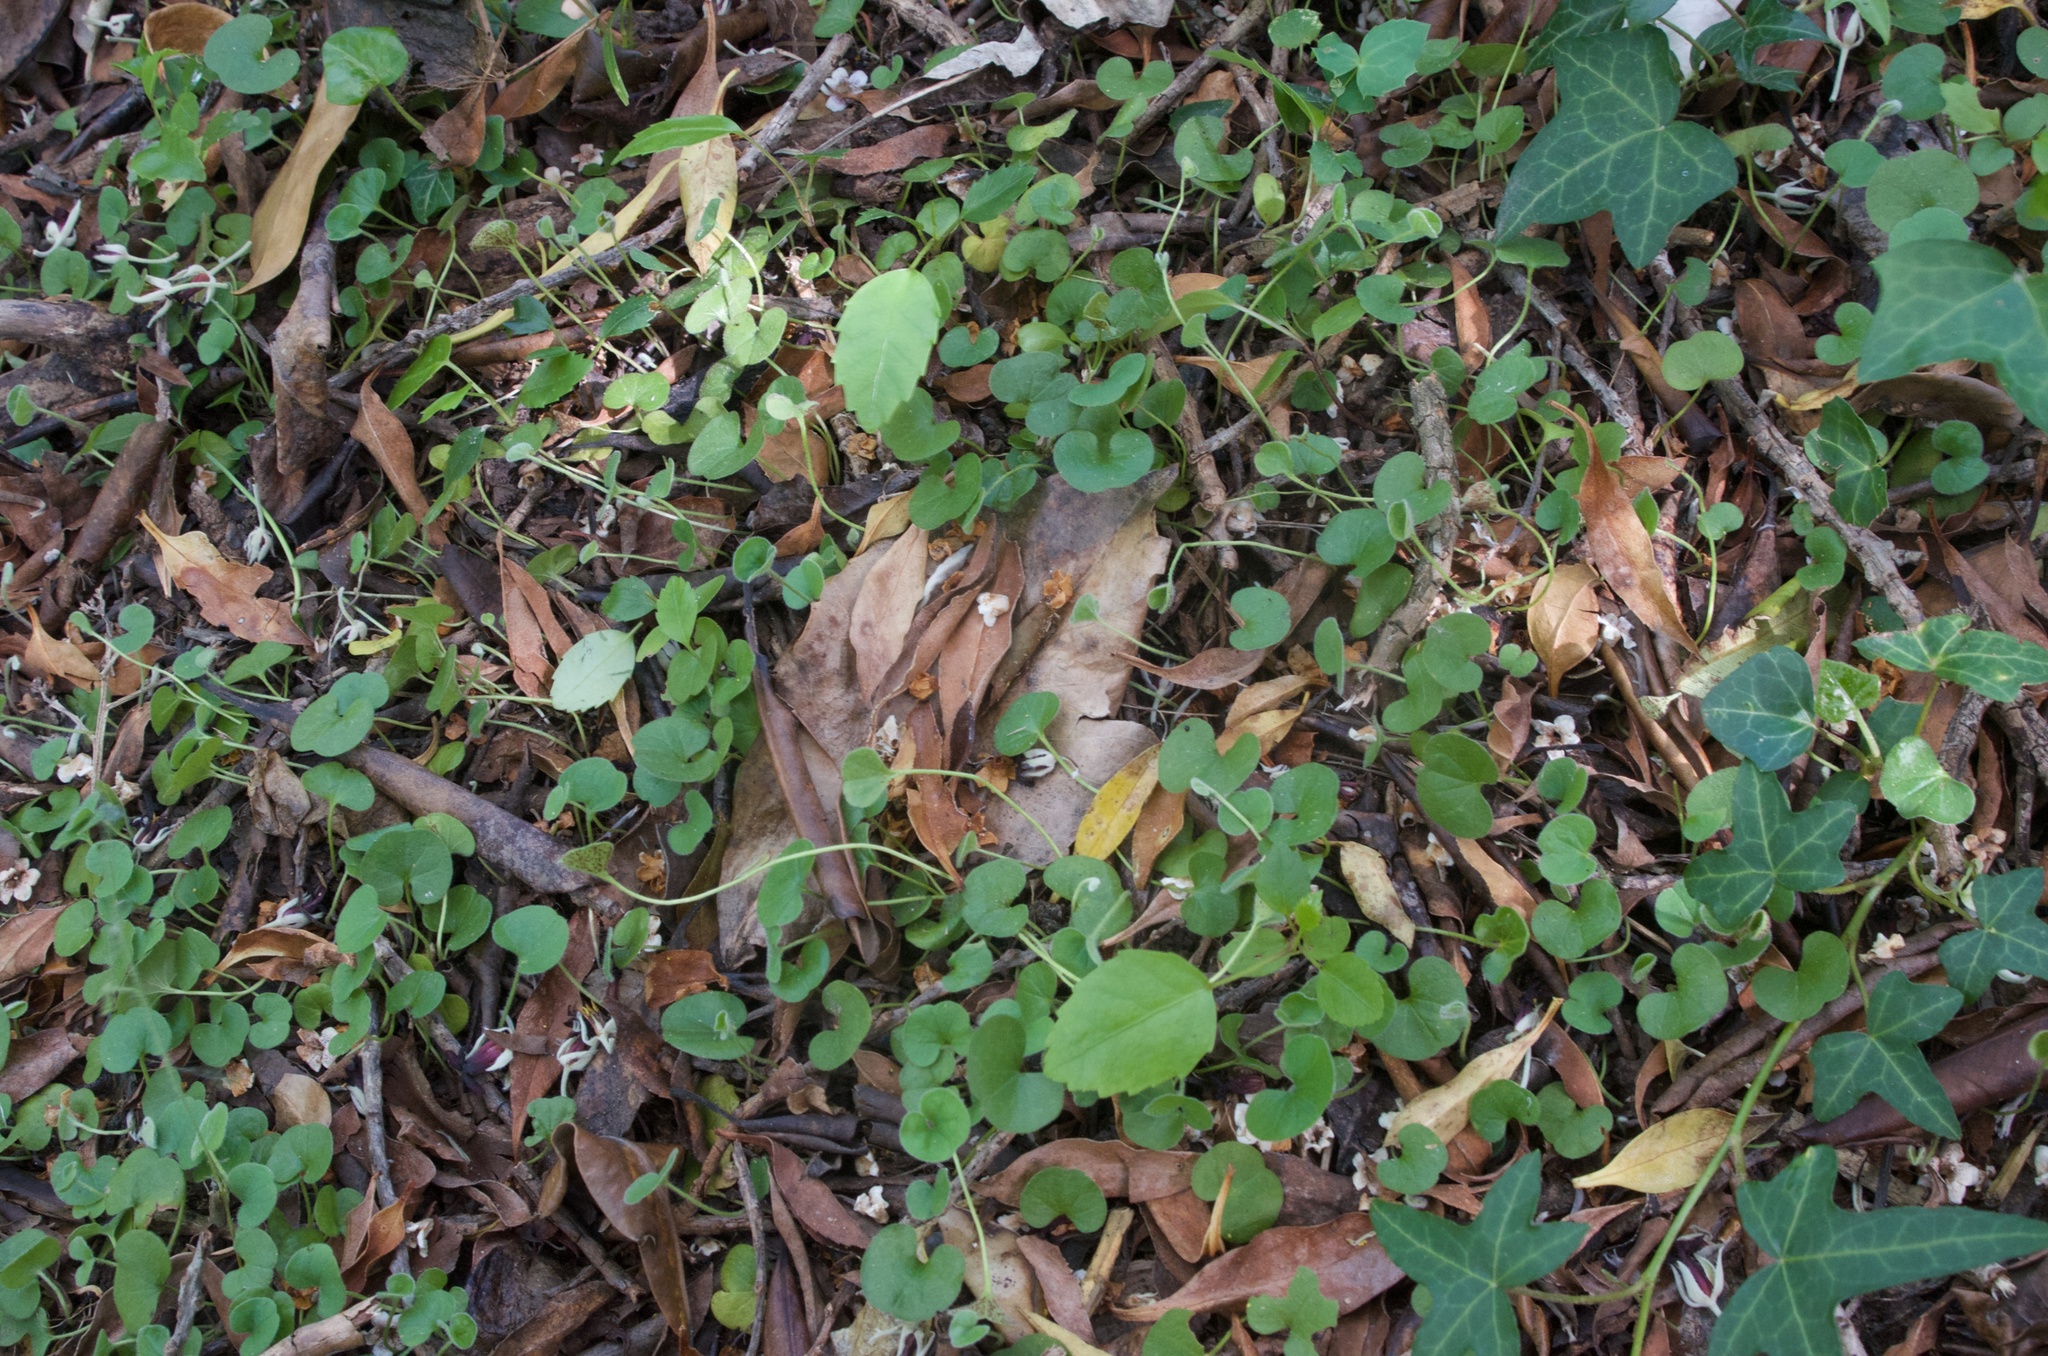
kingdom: Plantae
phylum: Tracheophyta
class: Magnoliopsida
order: Solanales
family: Convolvulaceae
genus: Dichondra
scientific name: Dichondra repens
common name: Kidneyweed
